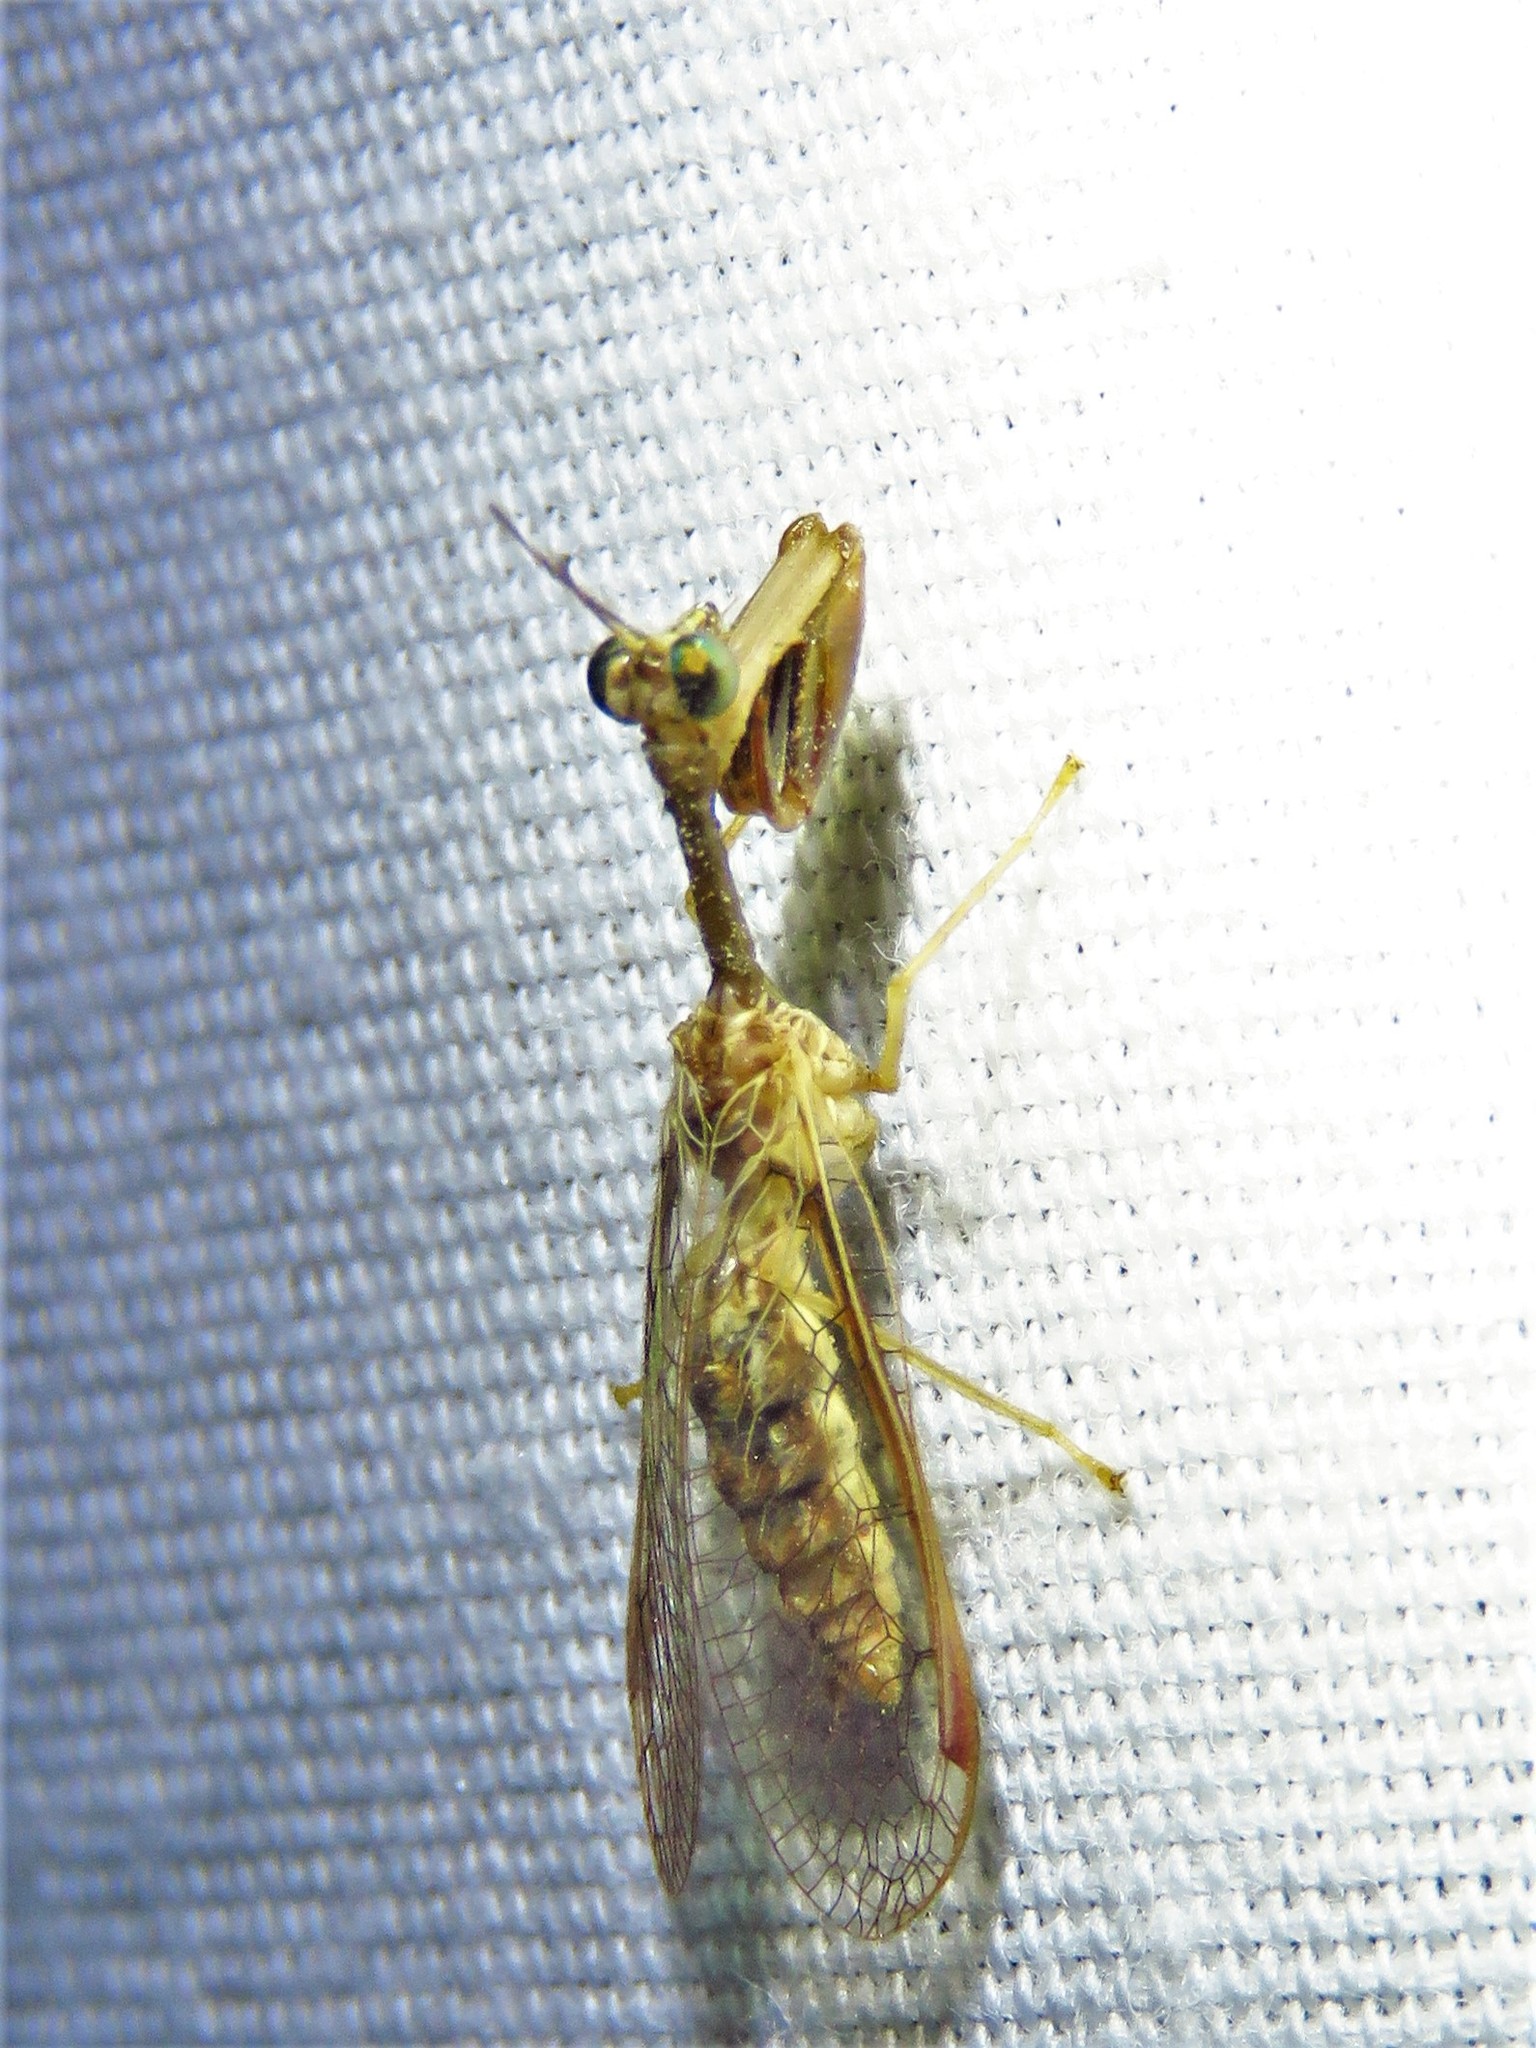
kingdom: Animalia
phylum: Arthropoda
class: Insecta
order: Neuroptera
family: Mantispidae
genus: Dicromantispa
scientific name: Dicromantispa sayi
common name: Say's mantidfly
